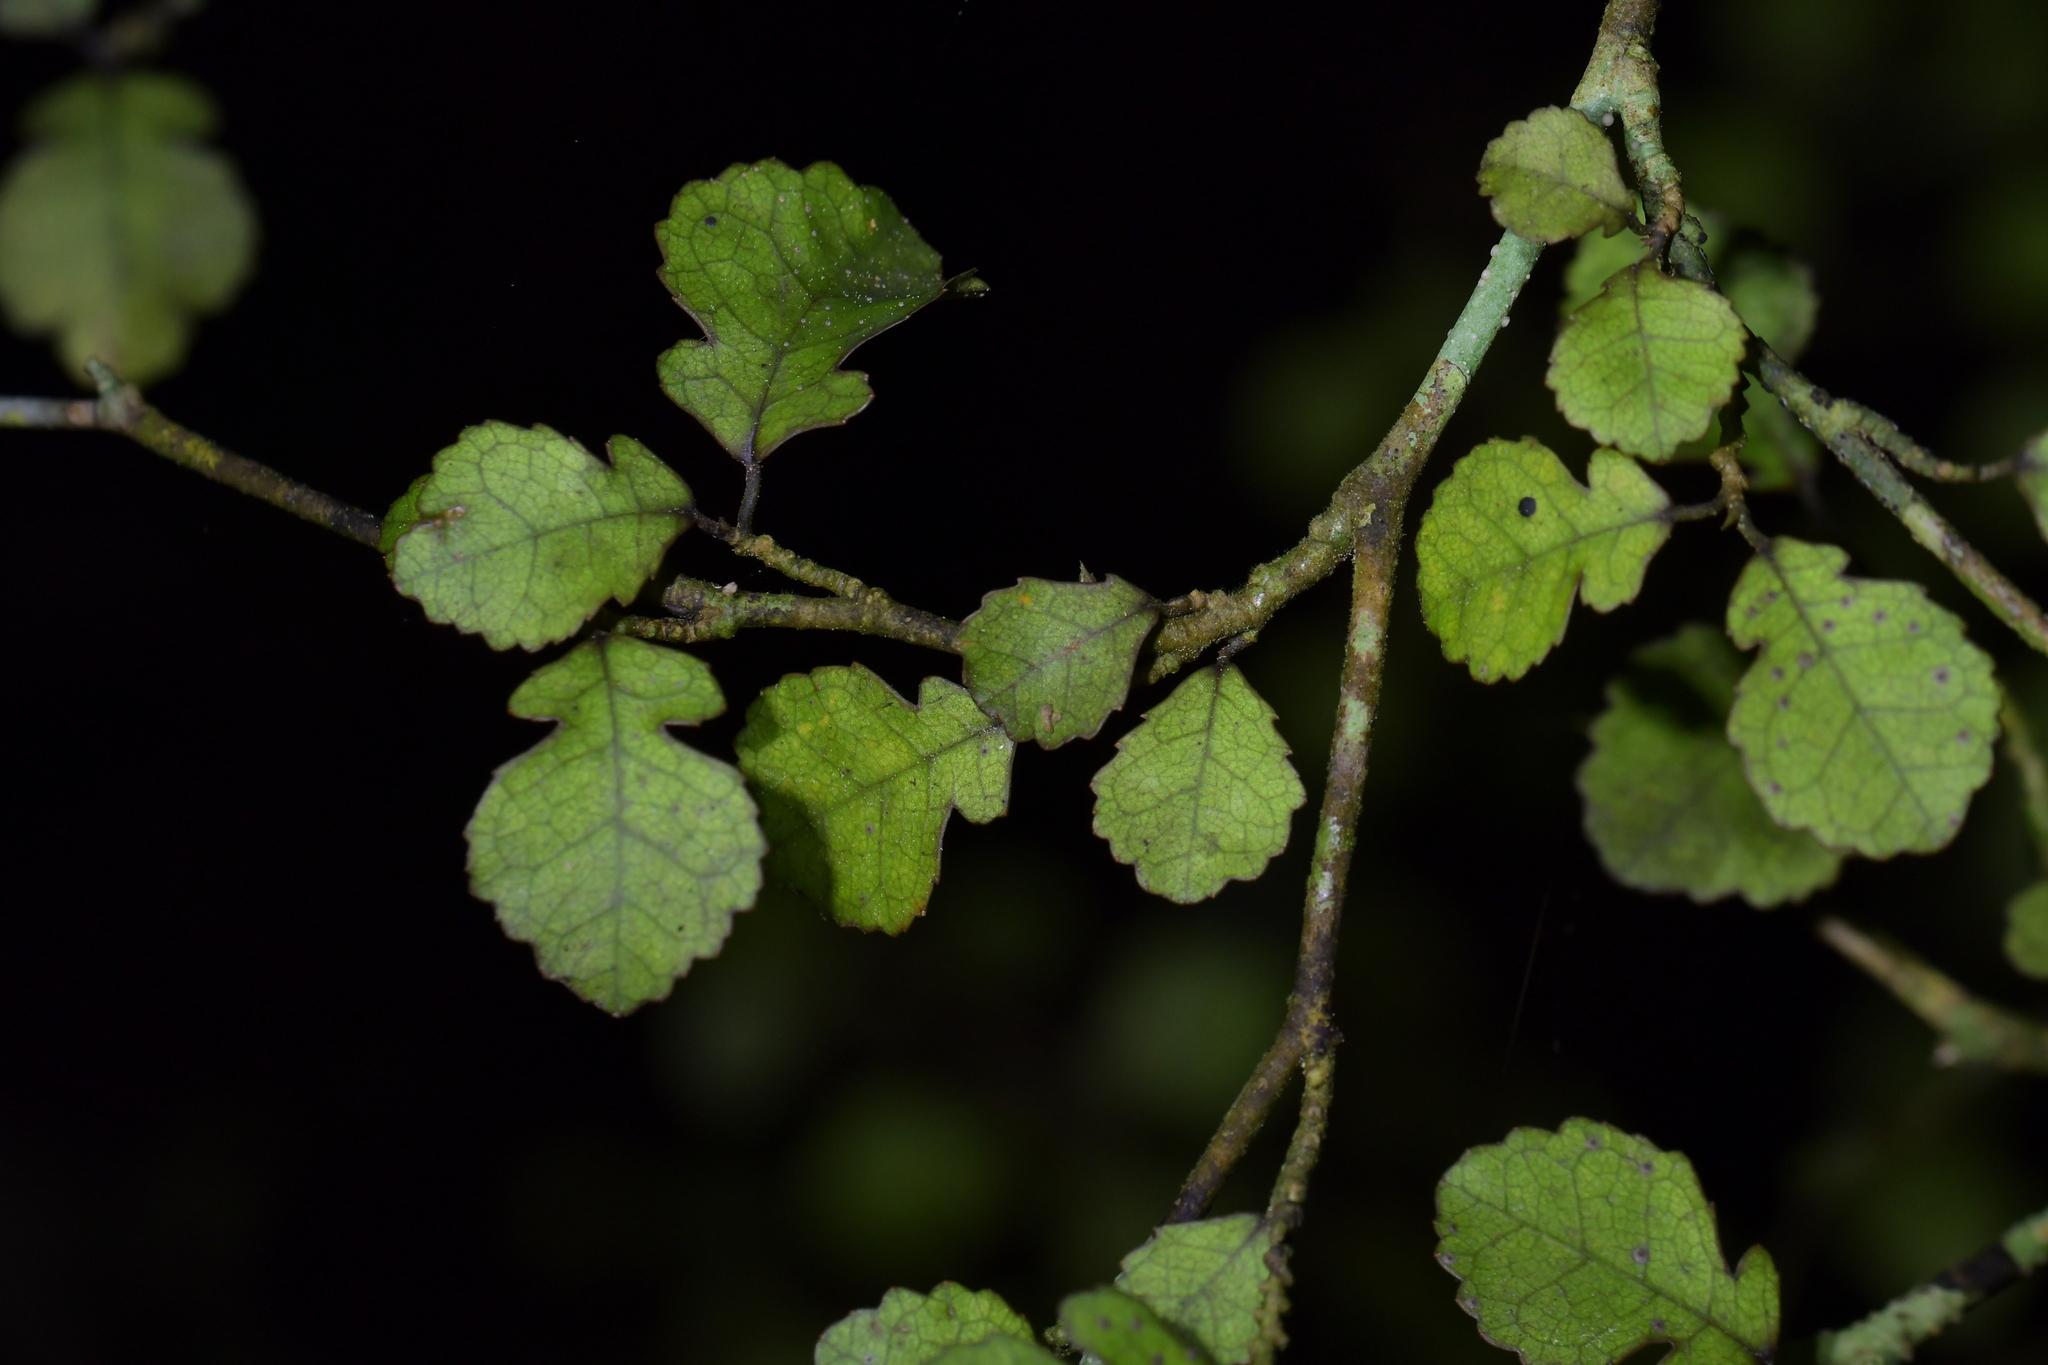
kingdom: Plantae
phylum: Tracheophyta
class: Magnoliopsida
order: Rosales
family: Moraceae
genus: Paratrophis
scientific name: Paratrophis microphylla
